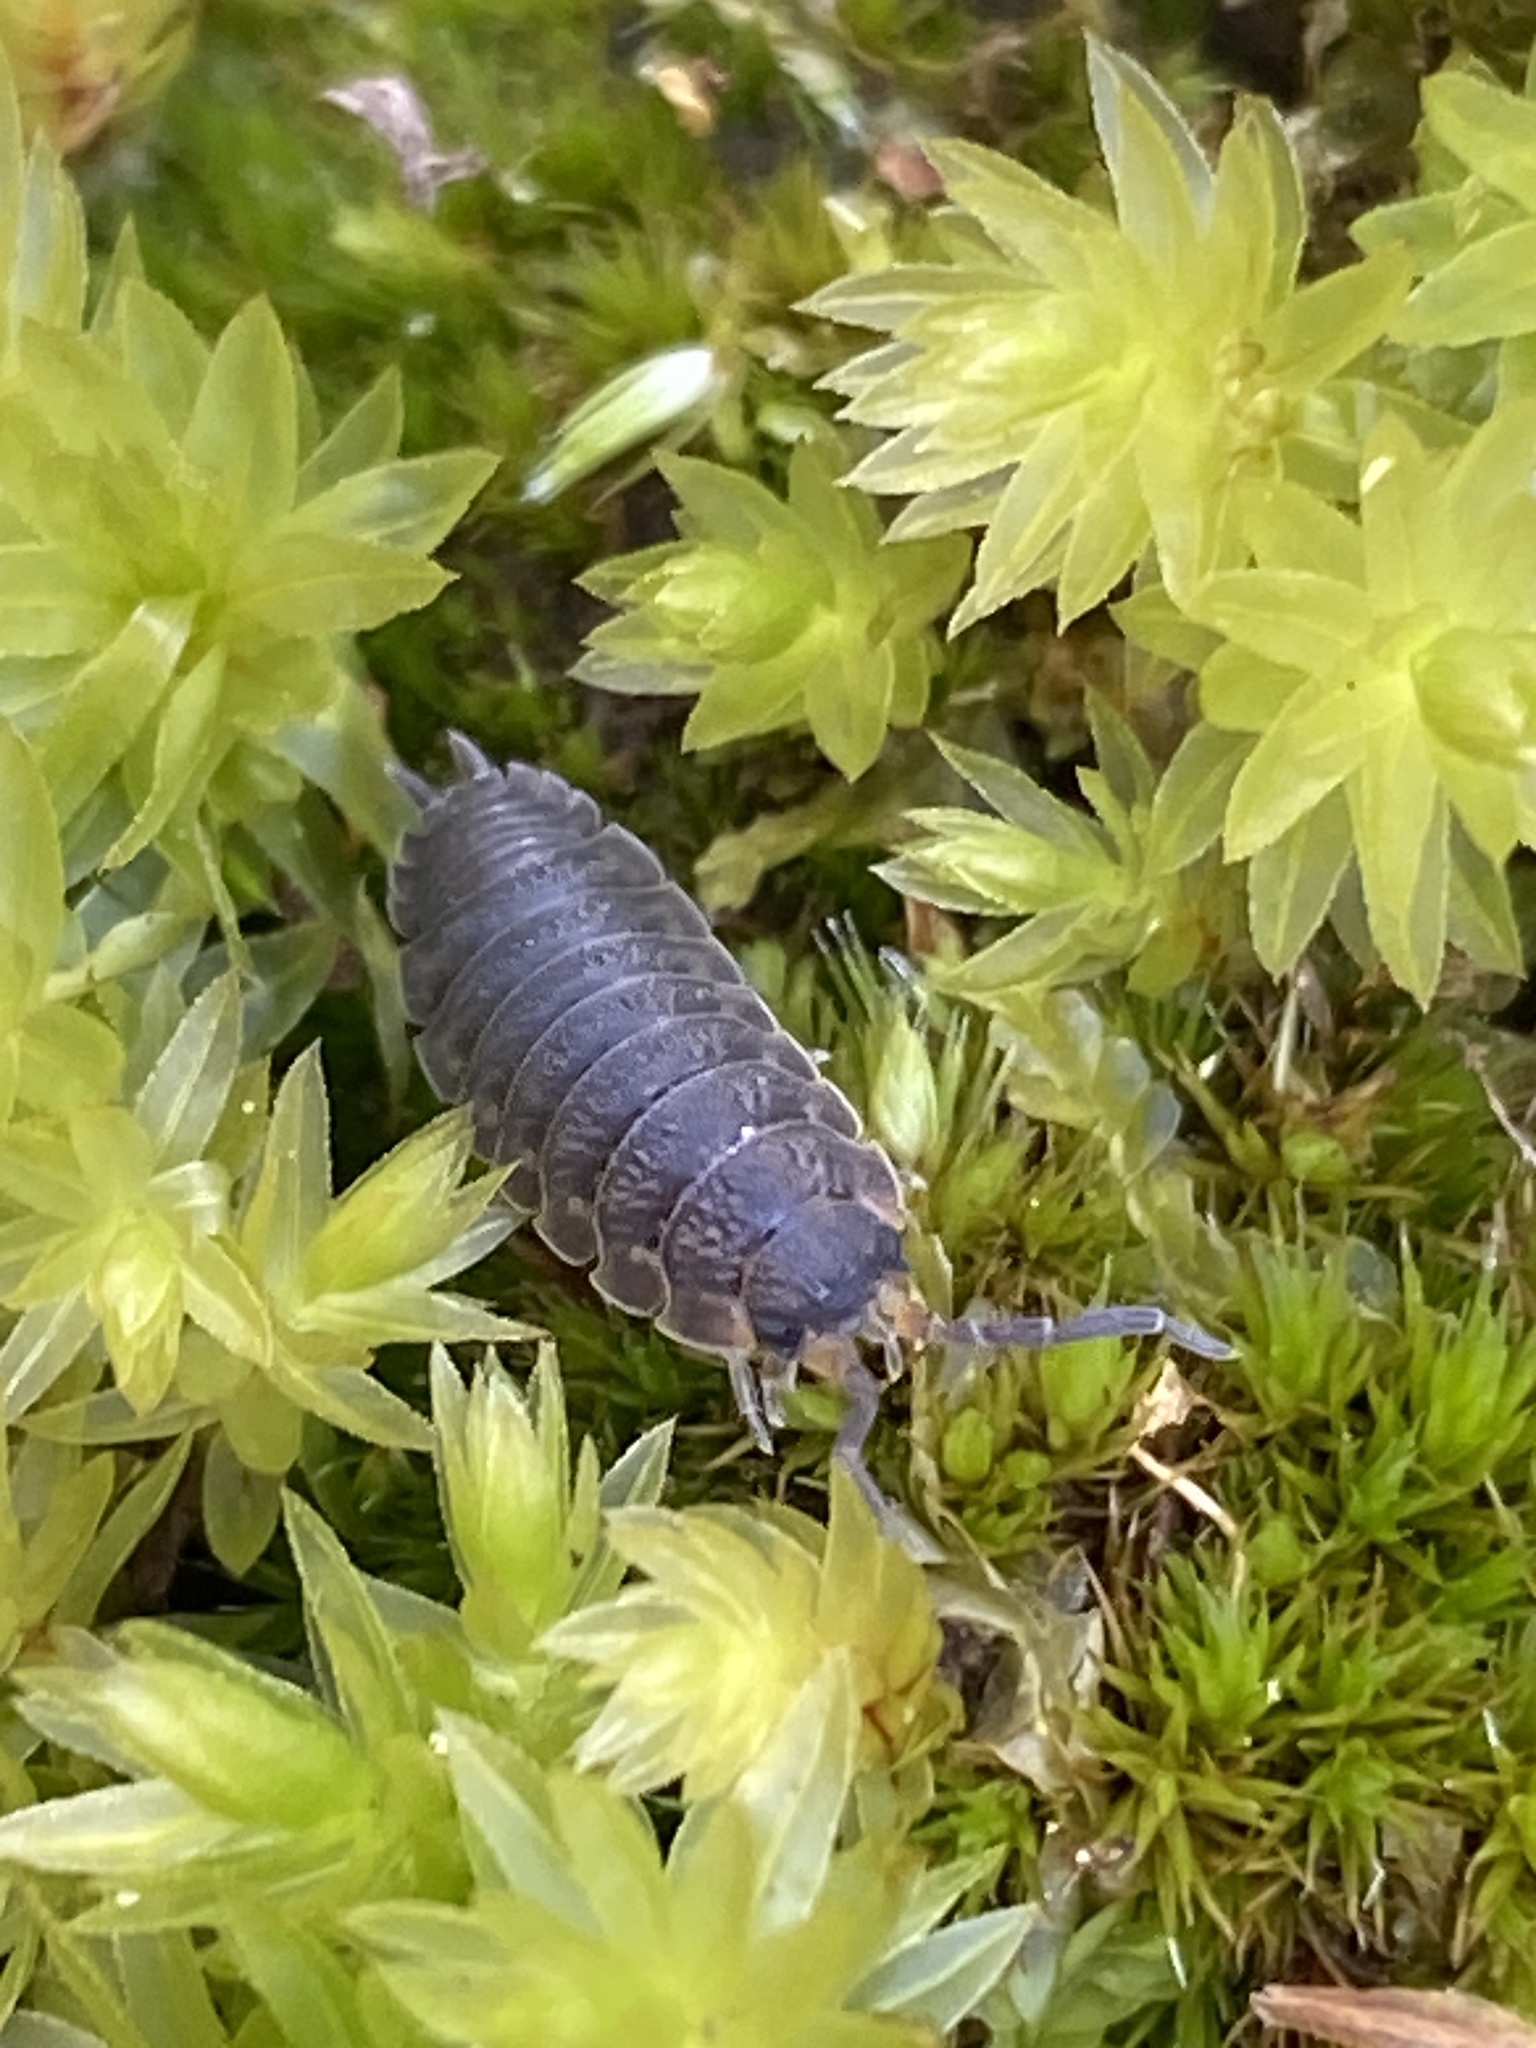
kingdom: Animalia
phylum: Arthropoda
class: Malacostraca
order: Isopoda
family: Porcellionidae
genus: Porcellio
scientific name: Porcellio scaber
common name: Common rough woodlouse
